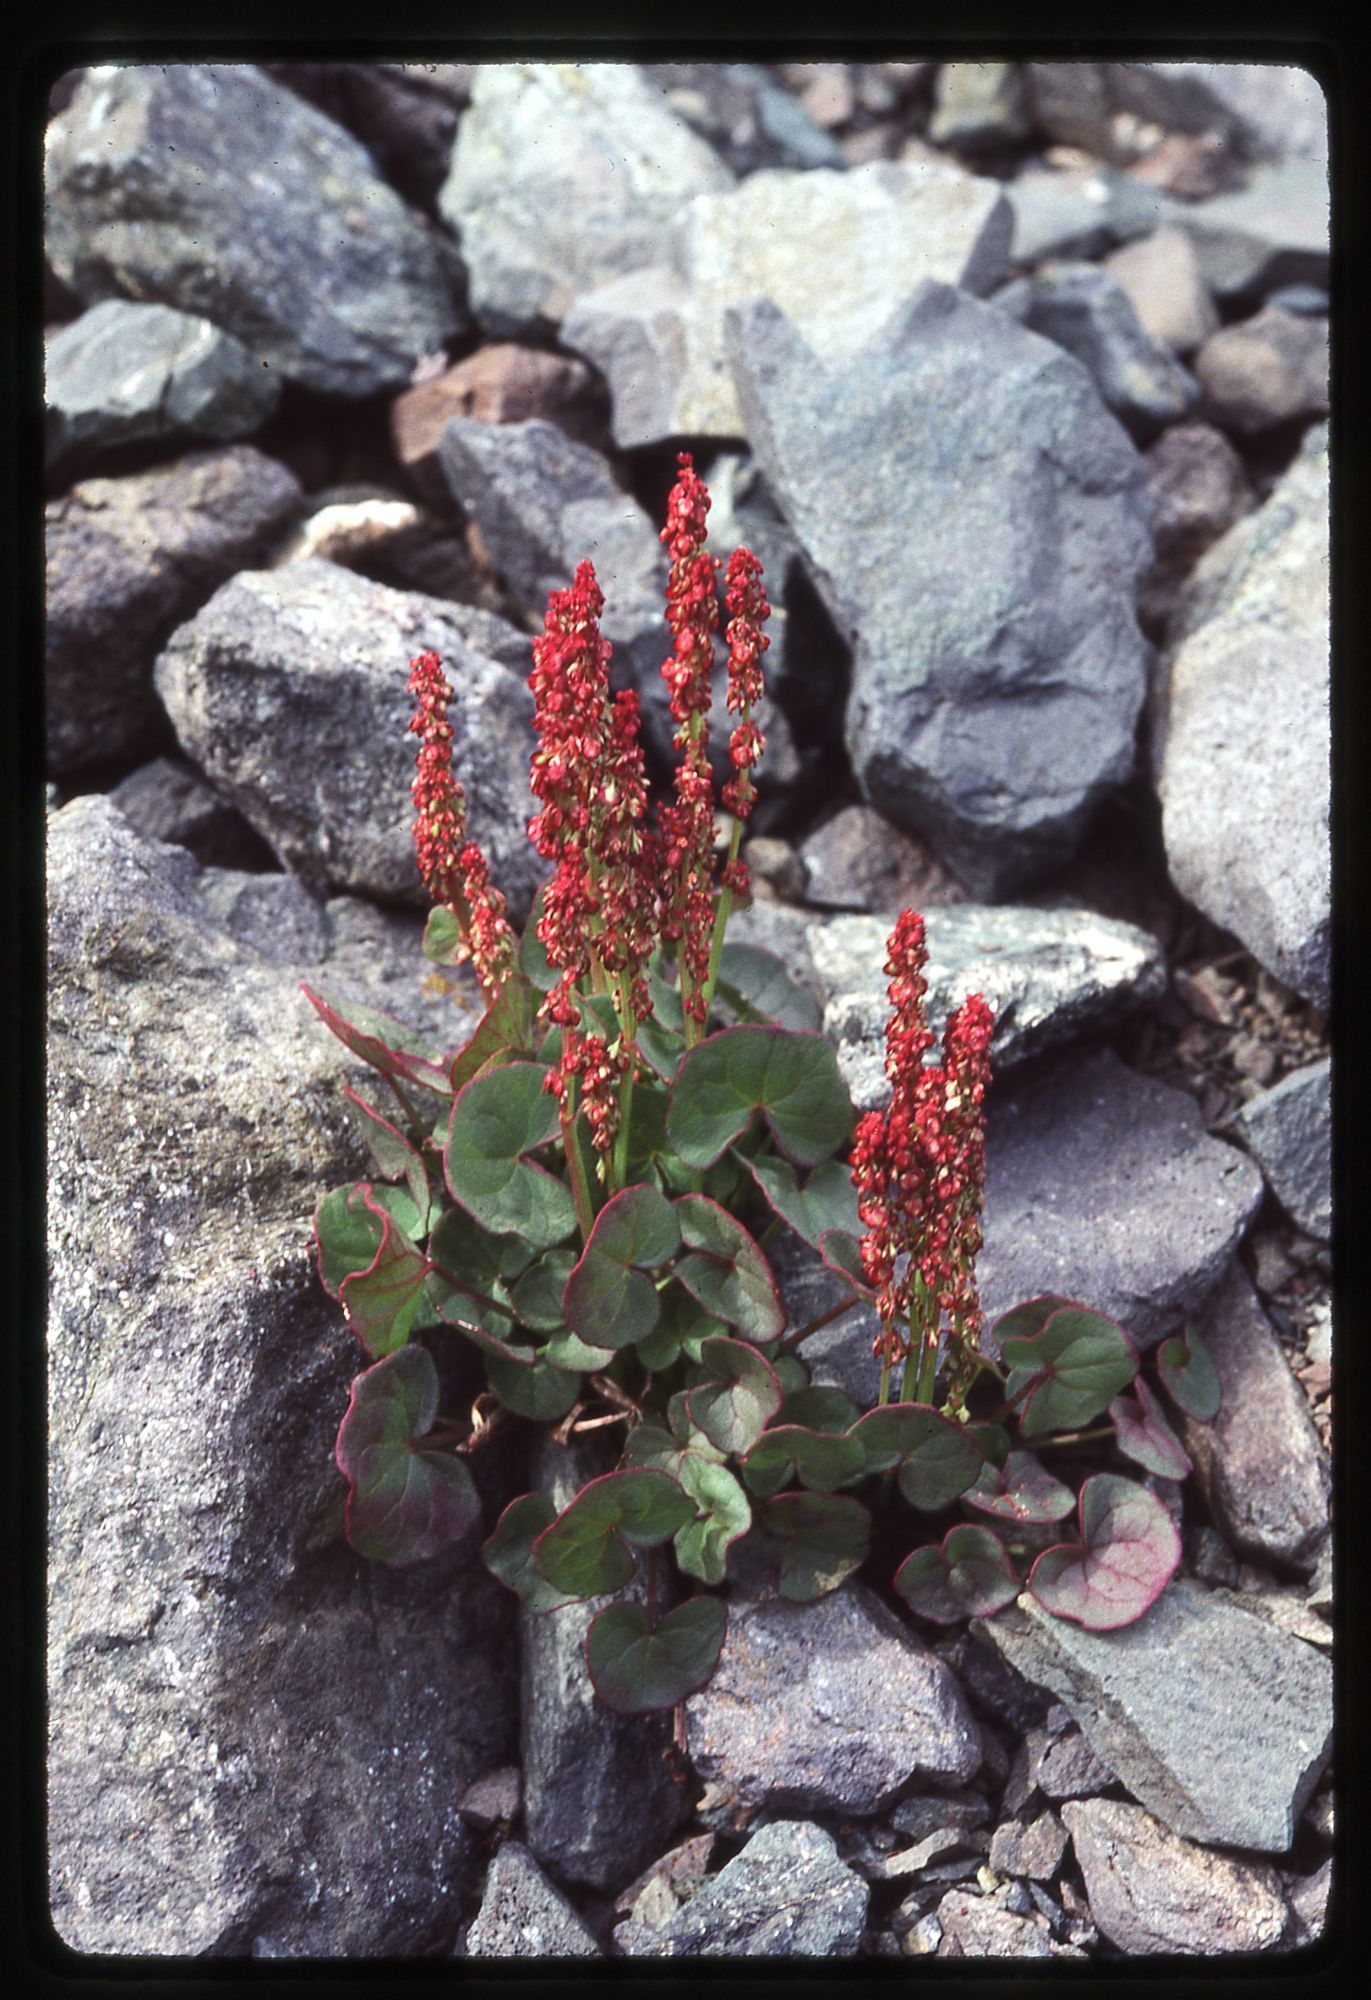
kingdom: Plantae
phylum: Tracheophyta
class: Magnoliopsida
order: Caryophyllales
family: Polygonaceae
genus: Oxyria
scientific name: Oxyria digyna
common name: Alpine mountain-sorrel
